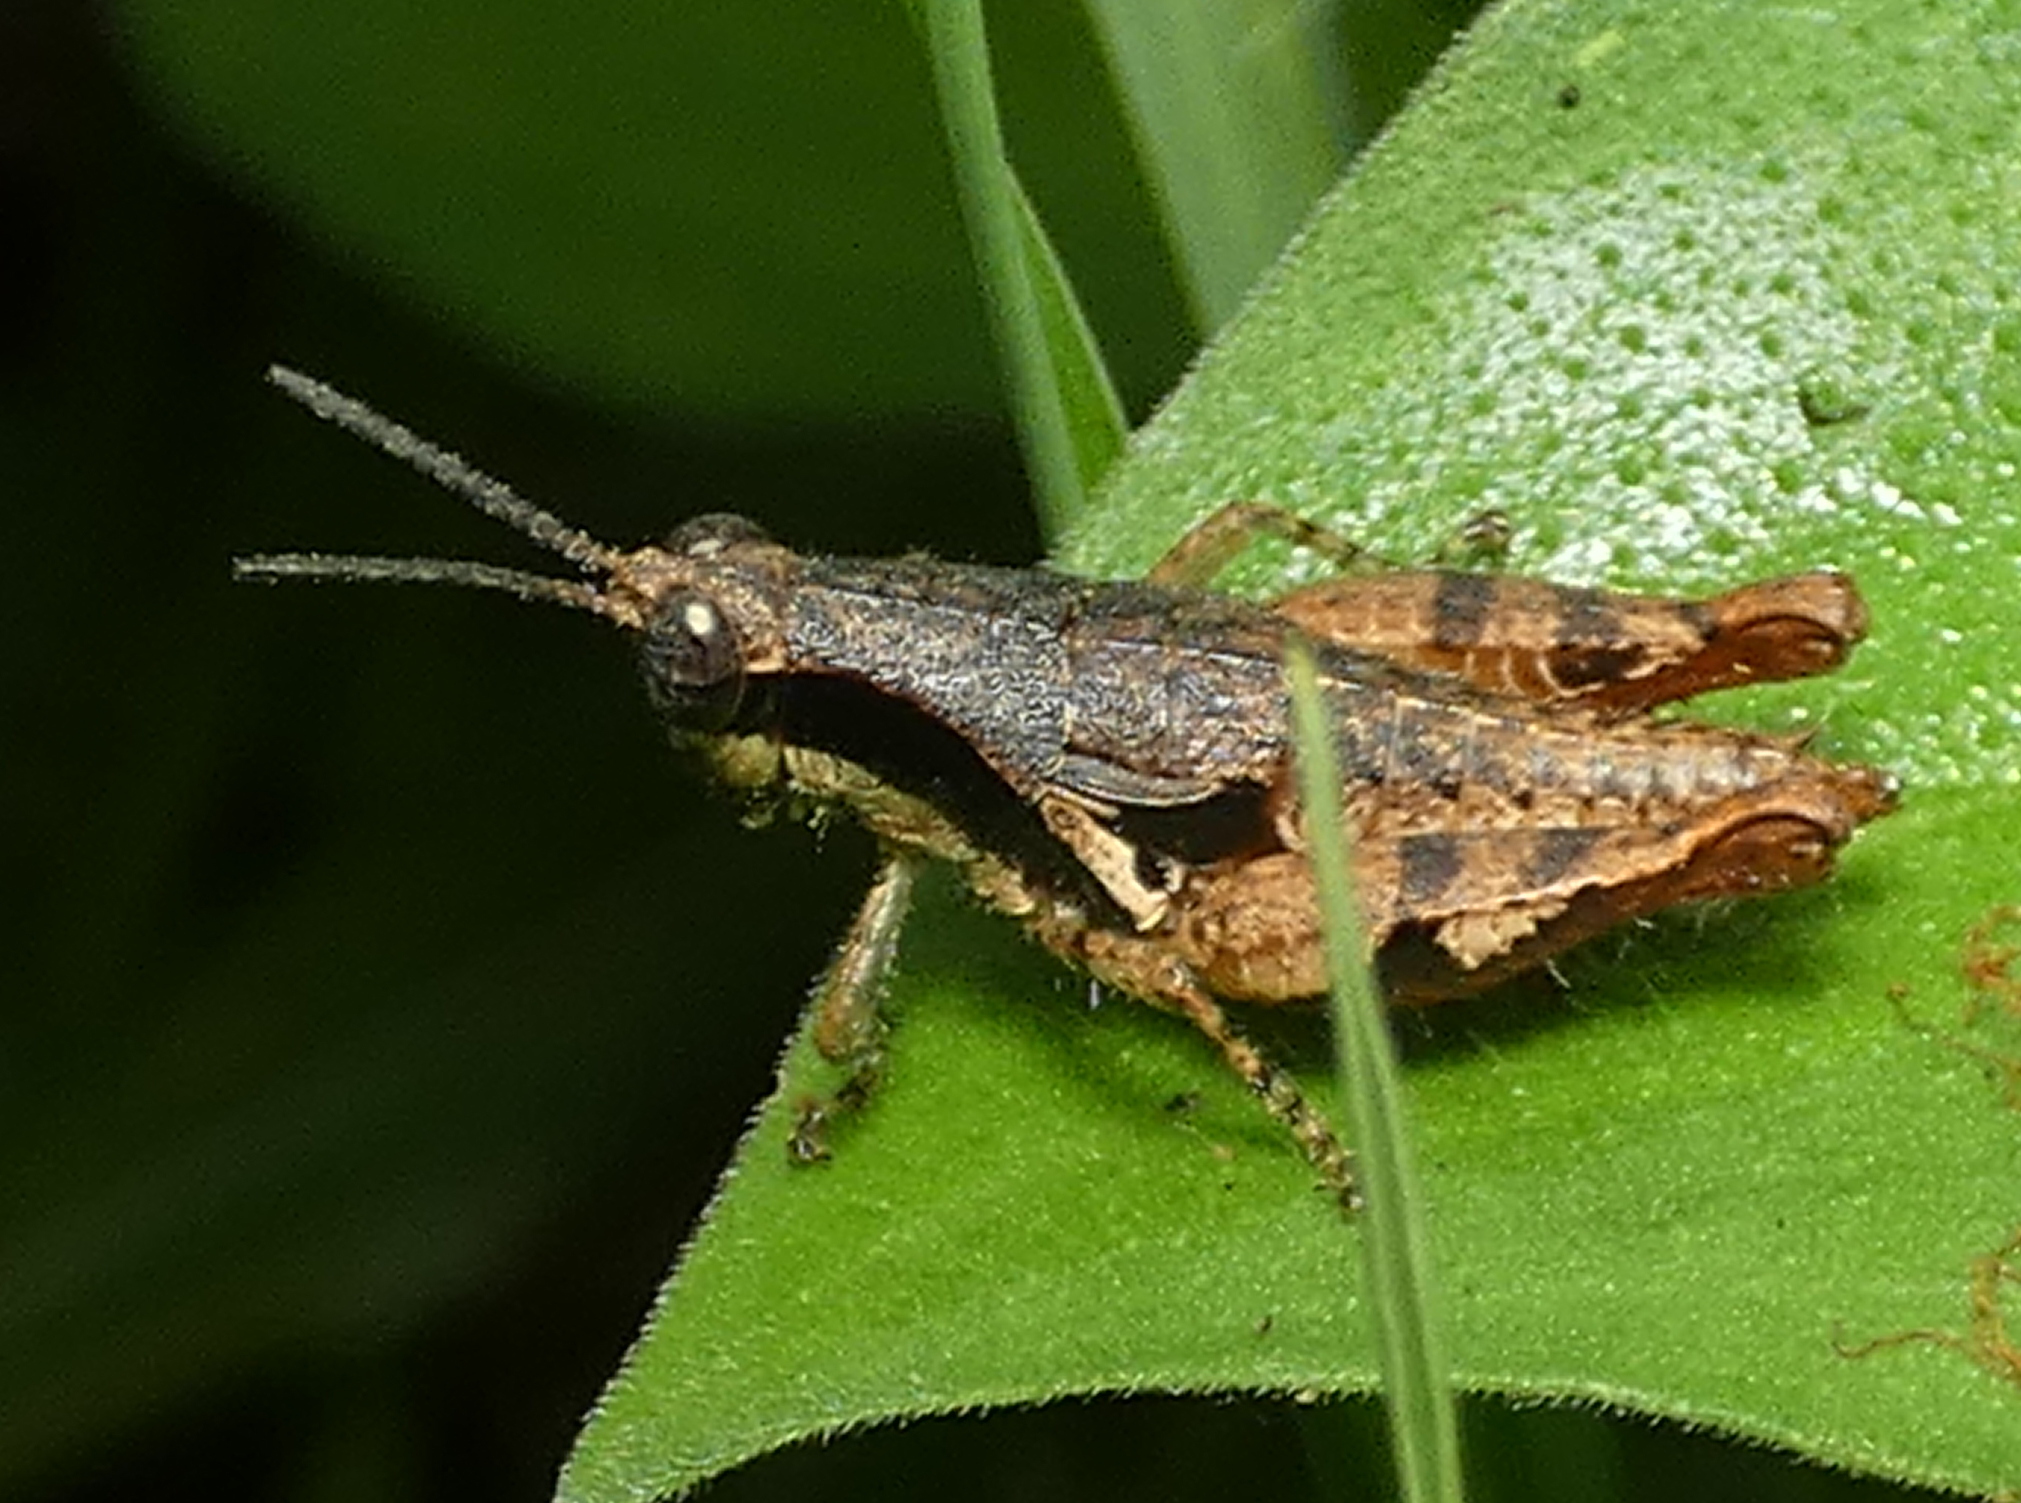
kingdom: Animalia
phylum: Arthropoda
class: Insecta
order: Orthoptera
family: Acrididae
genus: Eujivarus
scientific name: Eujivarus meridionalis
